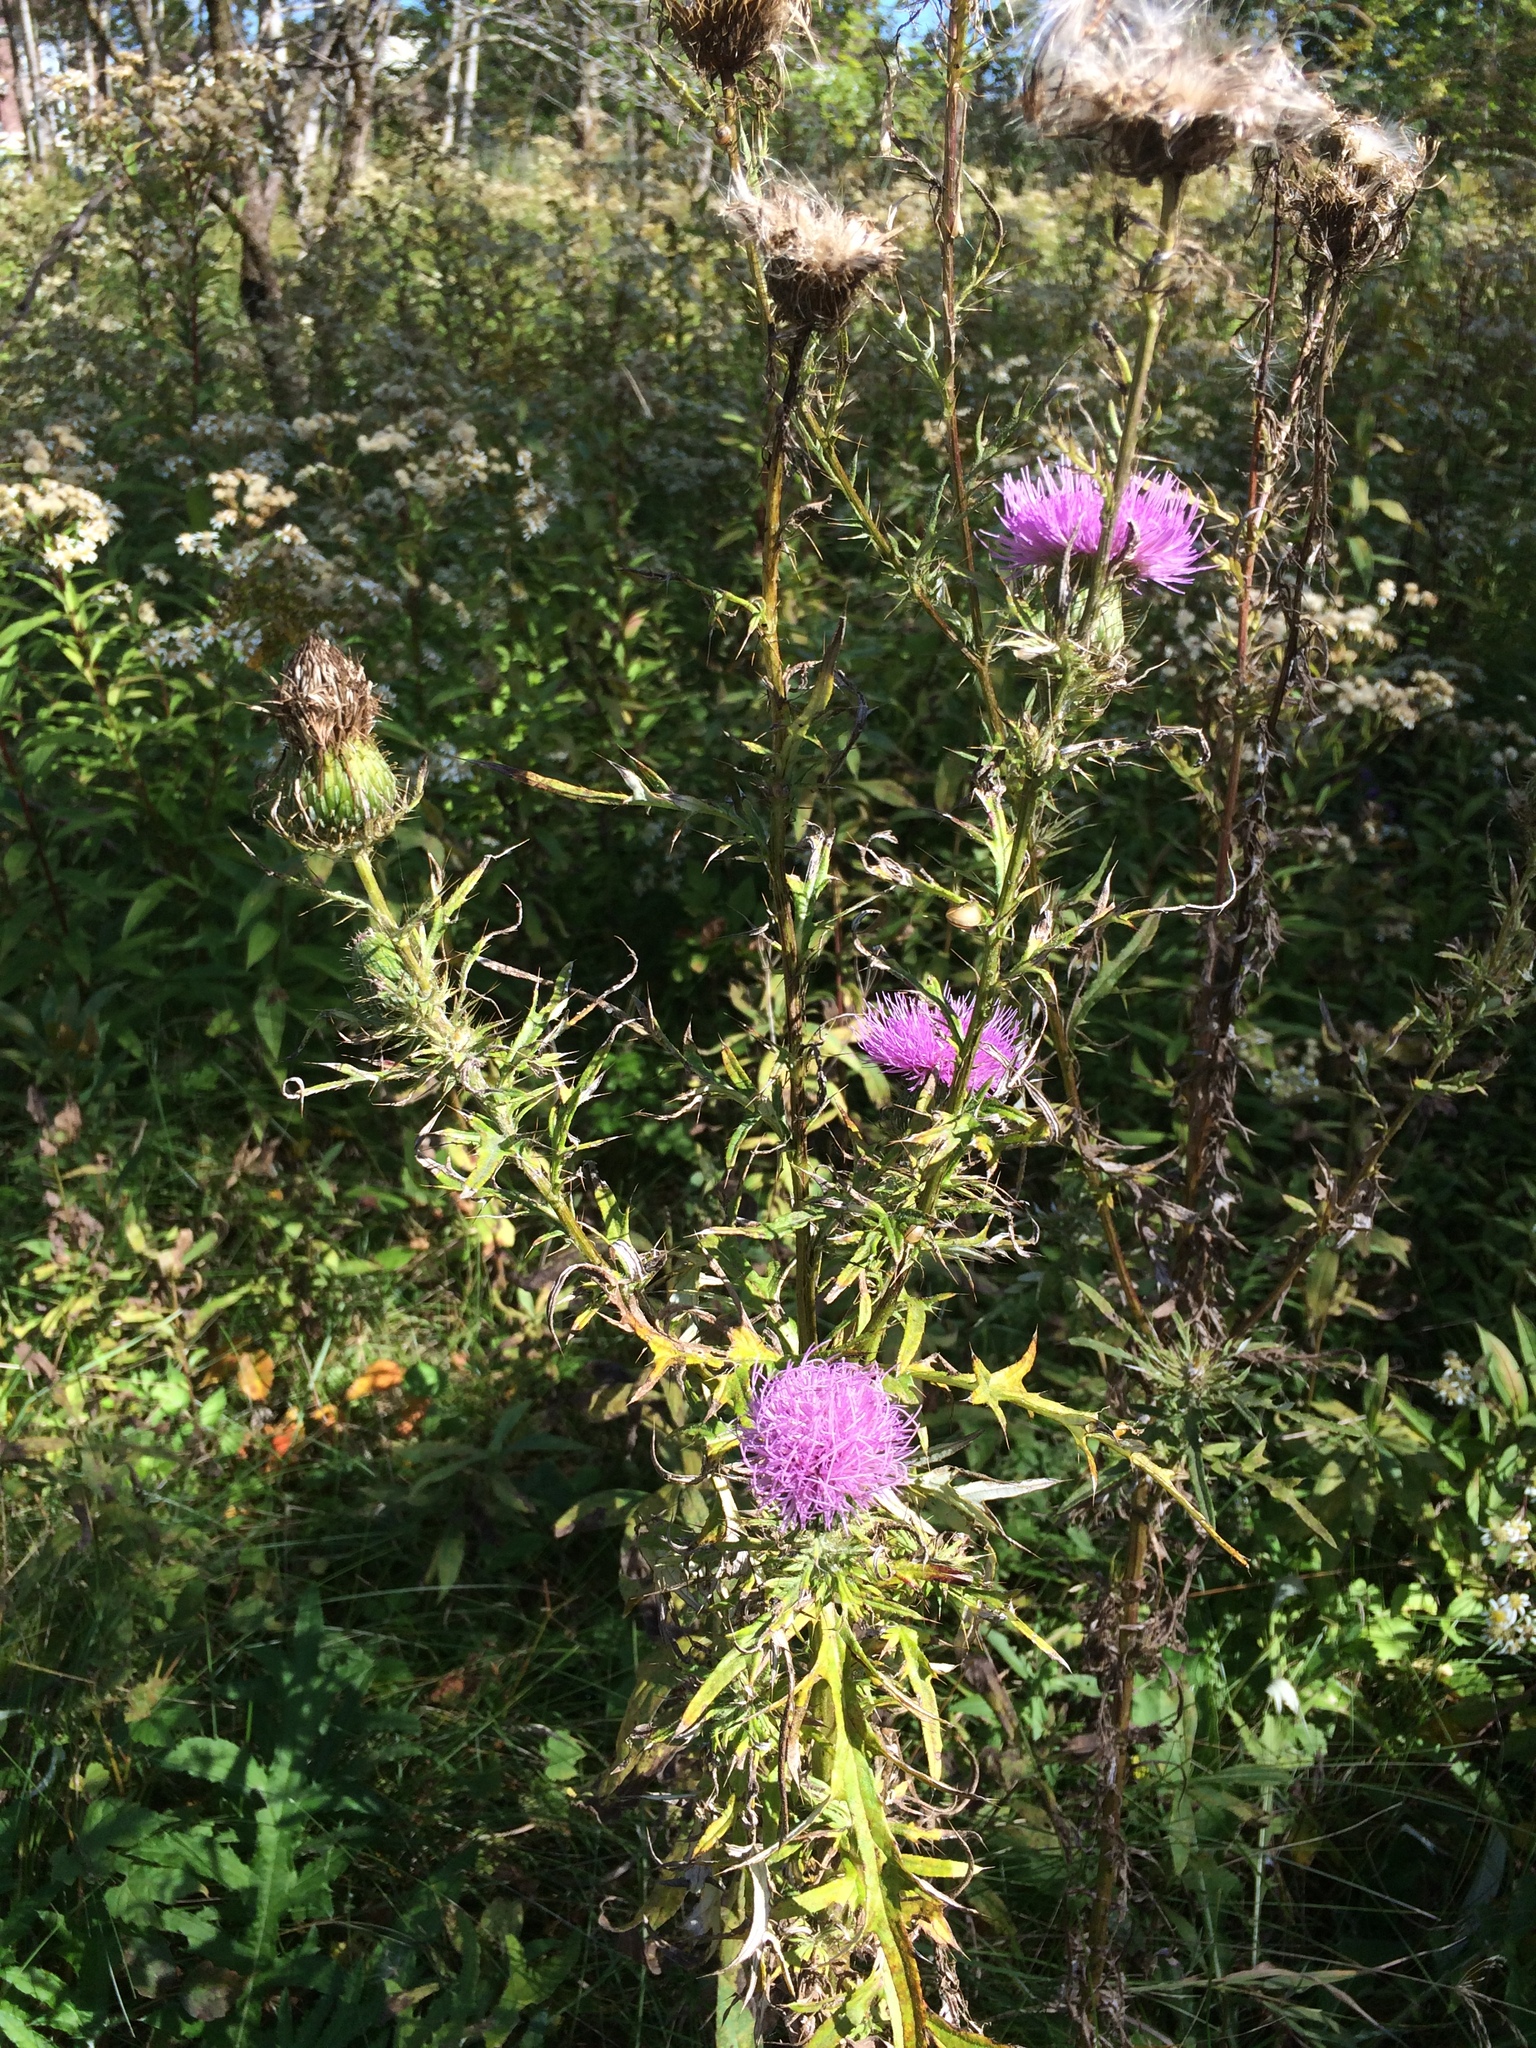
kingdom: Plantae
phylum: Tracheophyta
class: Magnoliopsida
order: Asterales
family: Asteraceae
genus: Cirsium
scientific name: Cirsium discolor
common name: Field thistle
